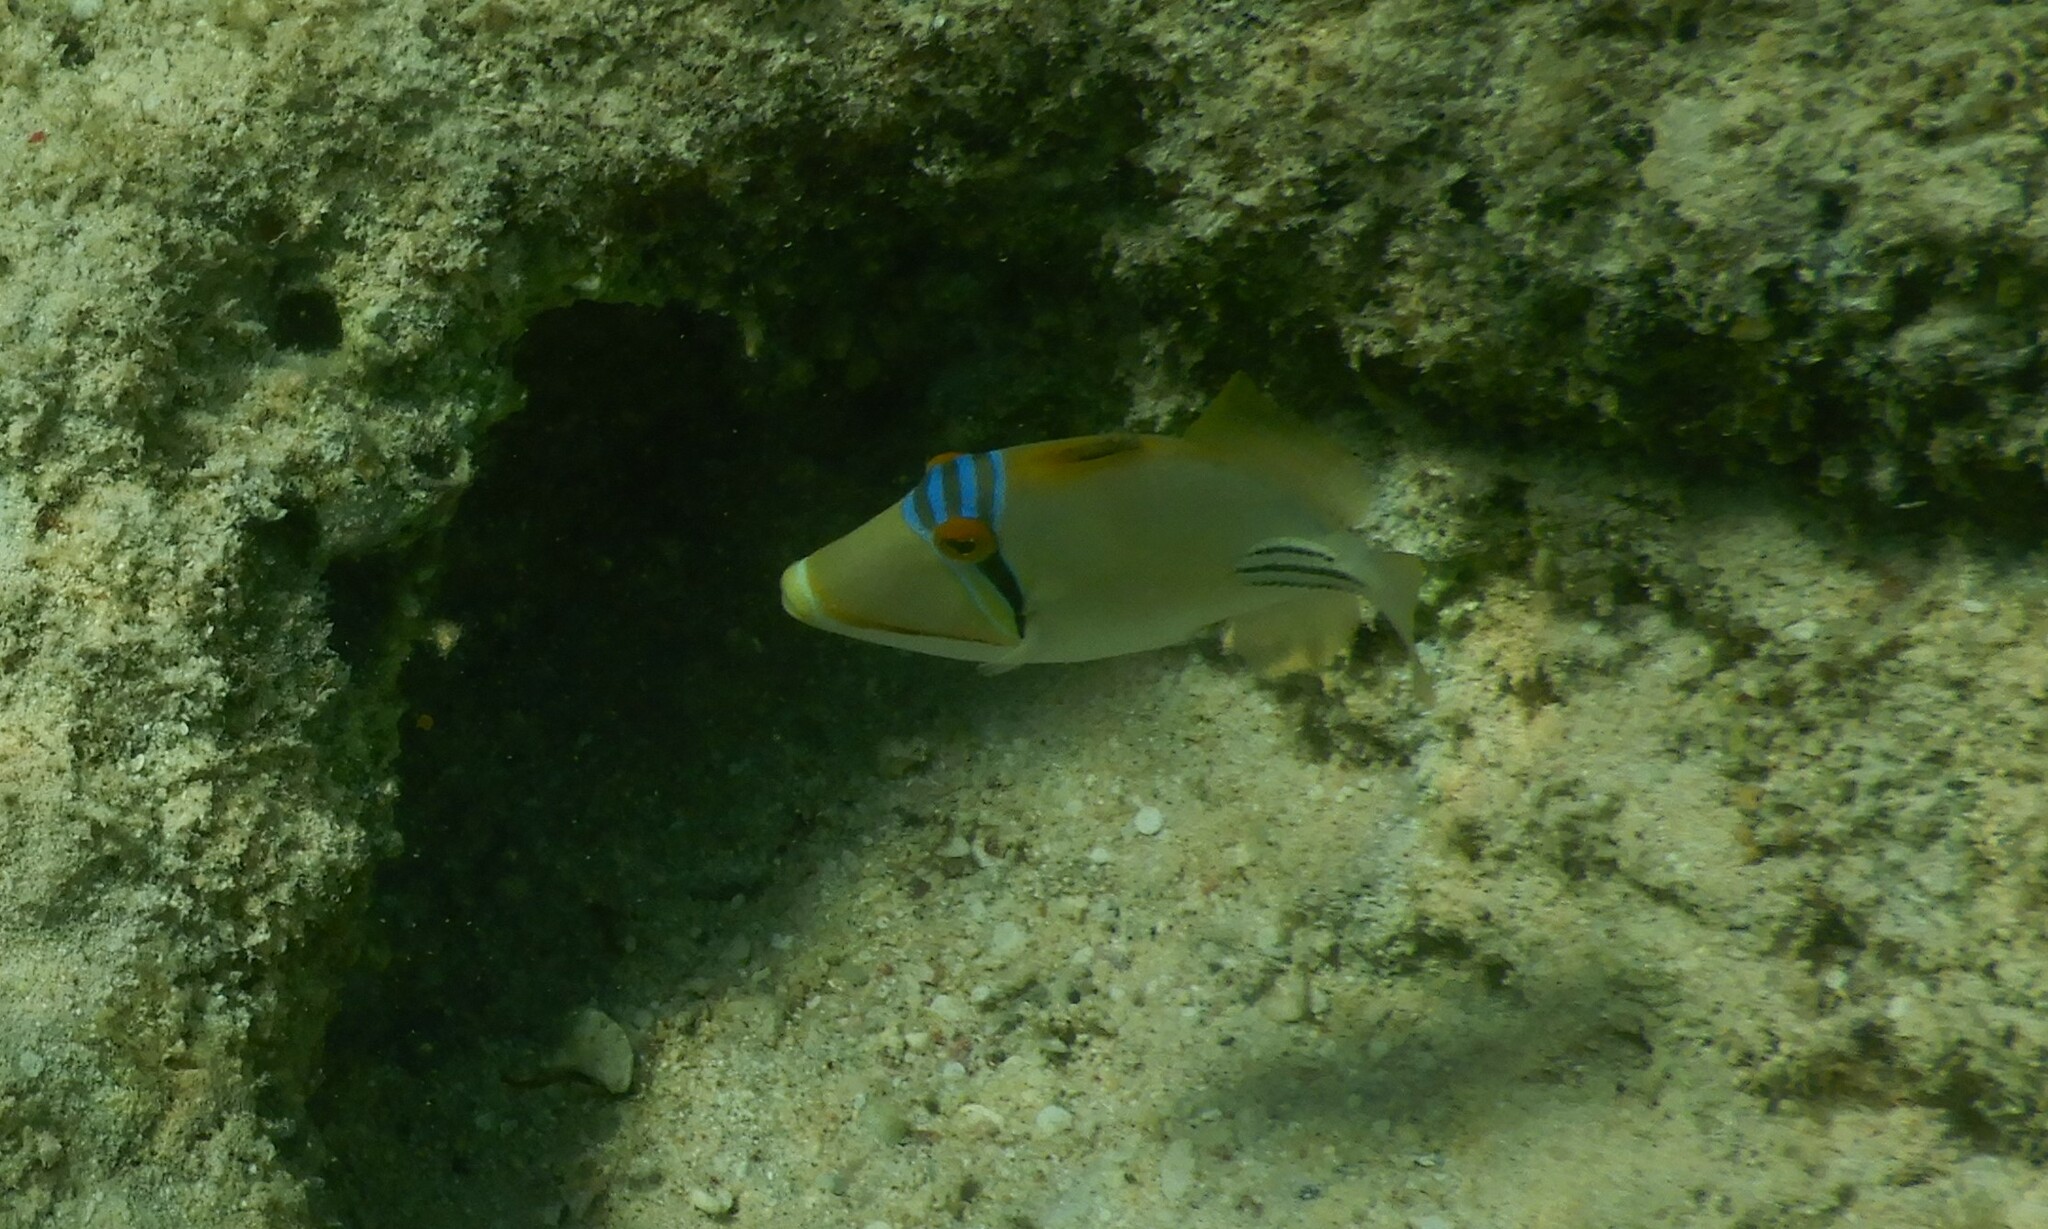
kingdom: Animalia
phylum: Chordata
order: Tetraodontiformes
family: Balistidae
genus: Rhinecanthus
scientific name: Rhinecanthus assasi
